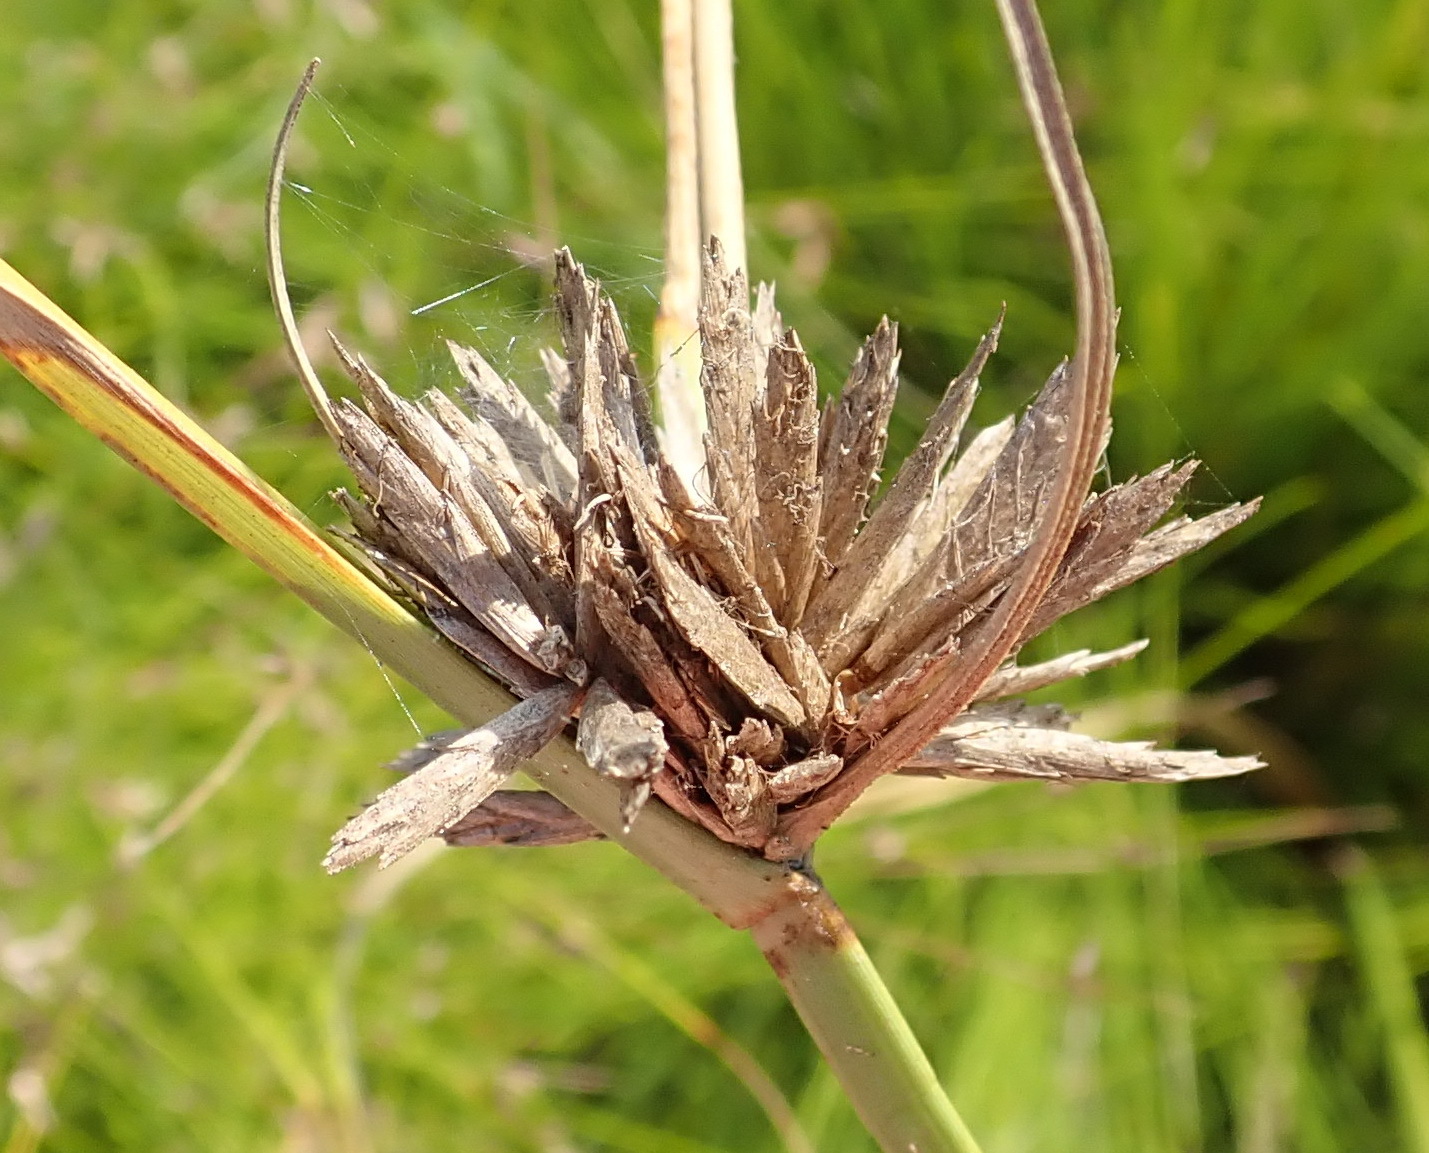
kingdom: Plantae
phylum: Tracheophyta
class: Liliopsida
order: Poales
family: Cyperaceae
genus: Cyperus
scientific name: Cyperus polystachyos
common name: Bunchy flat sedge
